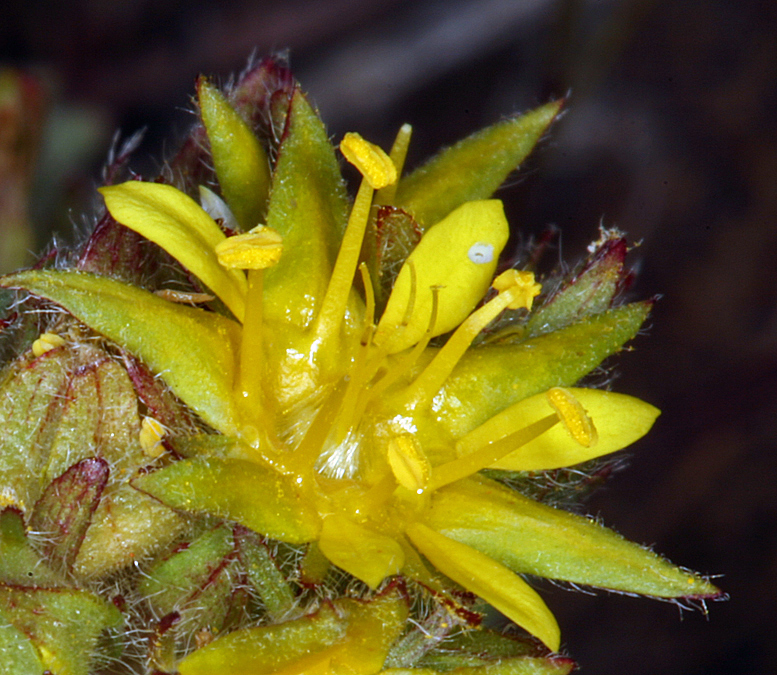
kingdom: Plantae
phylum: Tracheophyta
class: Magnoliopsida
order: Rosales
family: Rosaceae
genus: Potentilla
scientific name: Potentilla webberi
